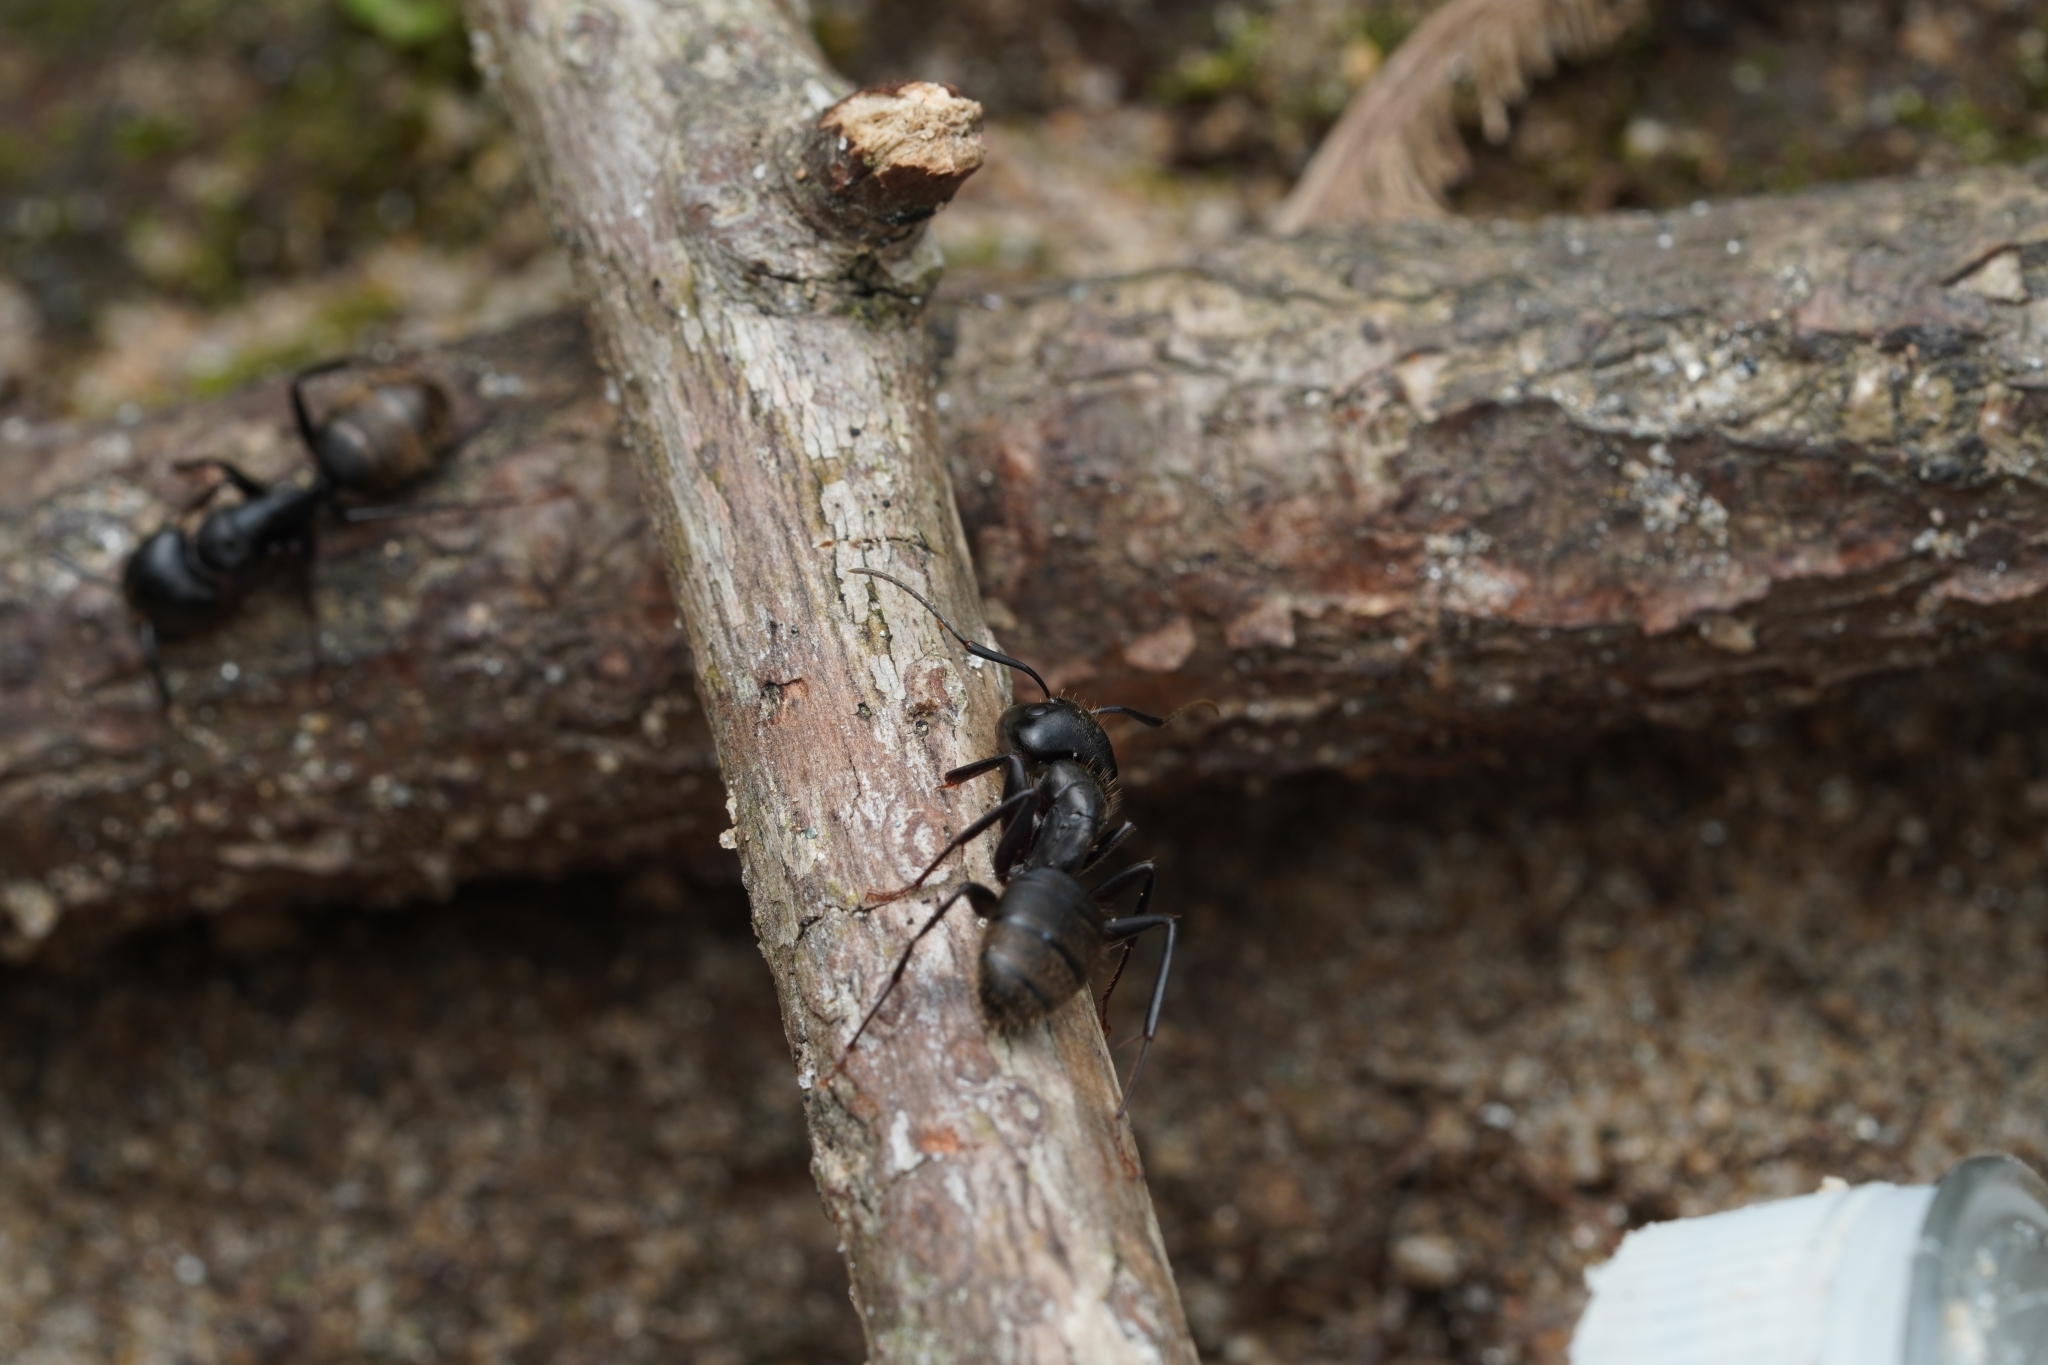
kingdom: Animalia
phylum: Arthropoda
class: Insecta
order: Hymenoptera
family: Formicidae
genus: Camponotus
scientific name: Camponotus pennsylvanicus
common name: Black carpenter ant
